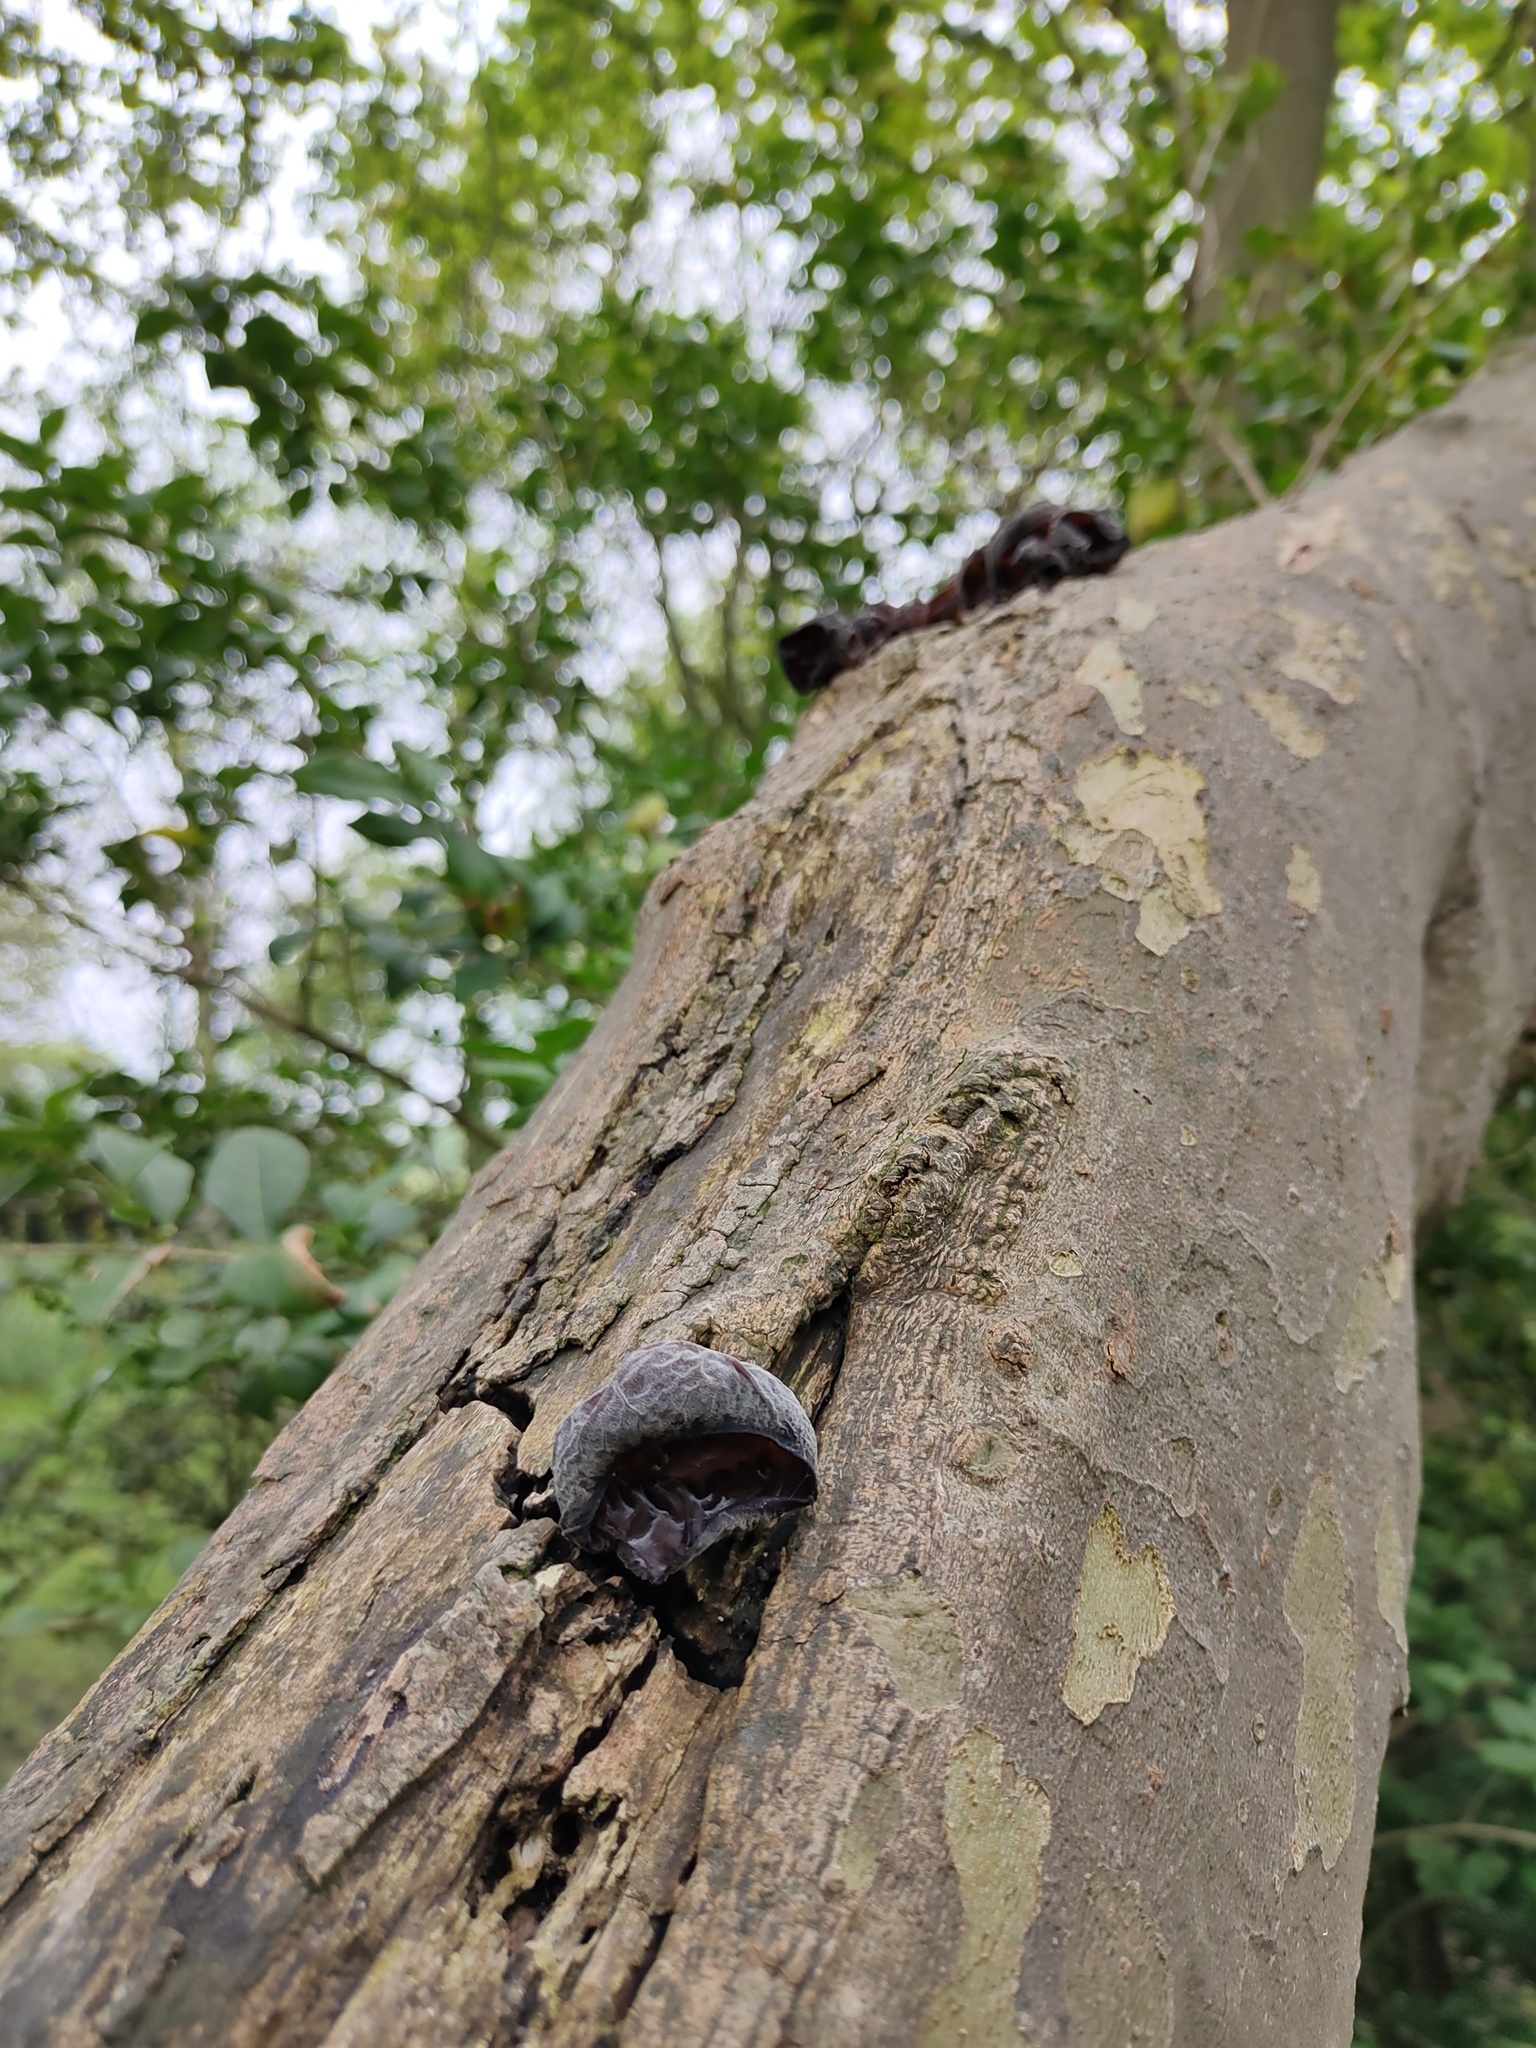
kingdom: Fungi
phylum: Basidiomycota
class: Agaricomycetes
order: Auriculariales
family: Auriculariaceae
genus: Auricularia
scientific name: Auricularia auricula-judae
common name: Jelly ear
